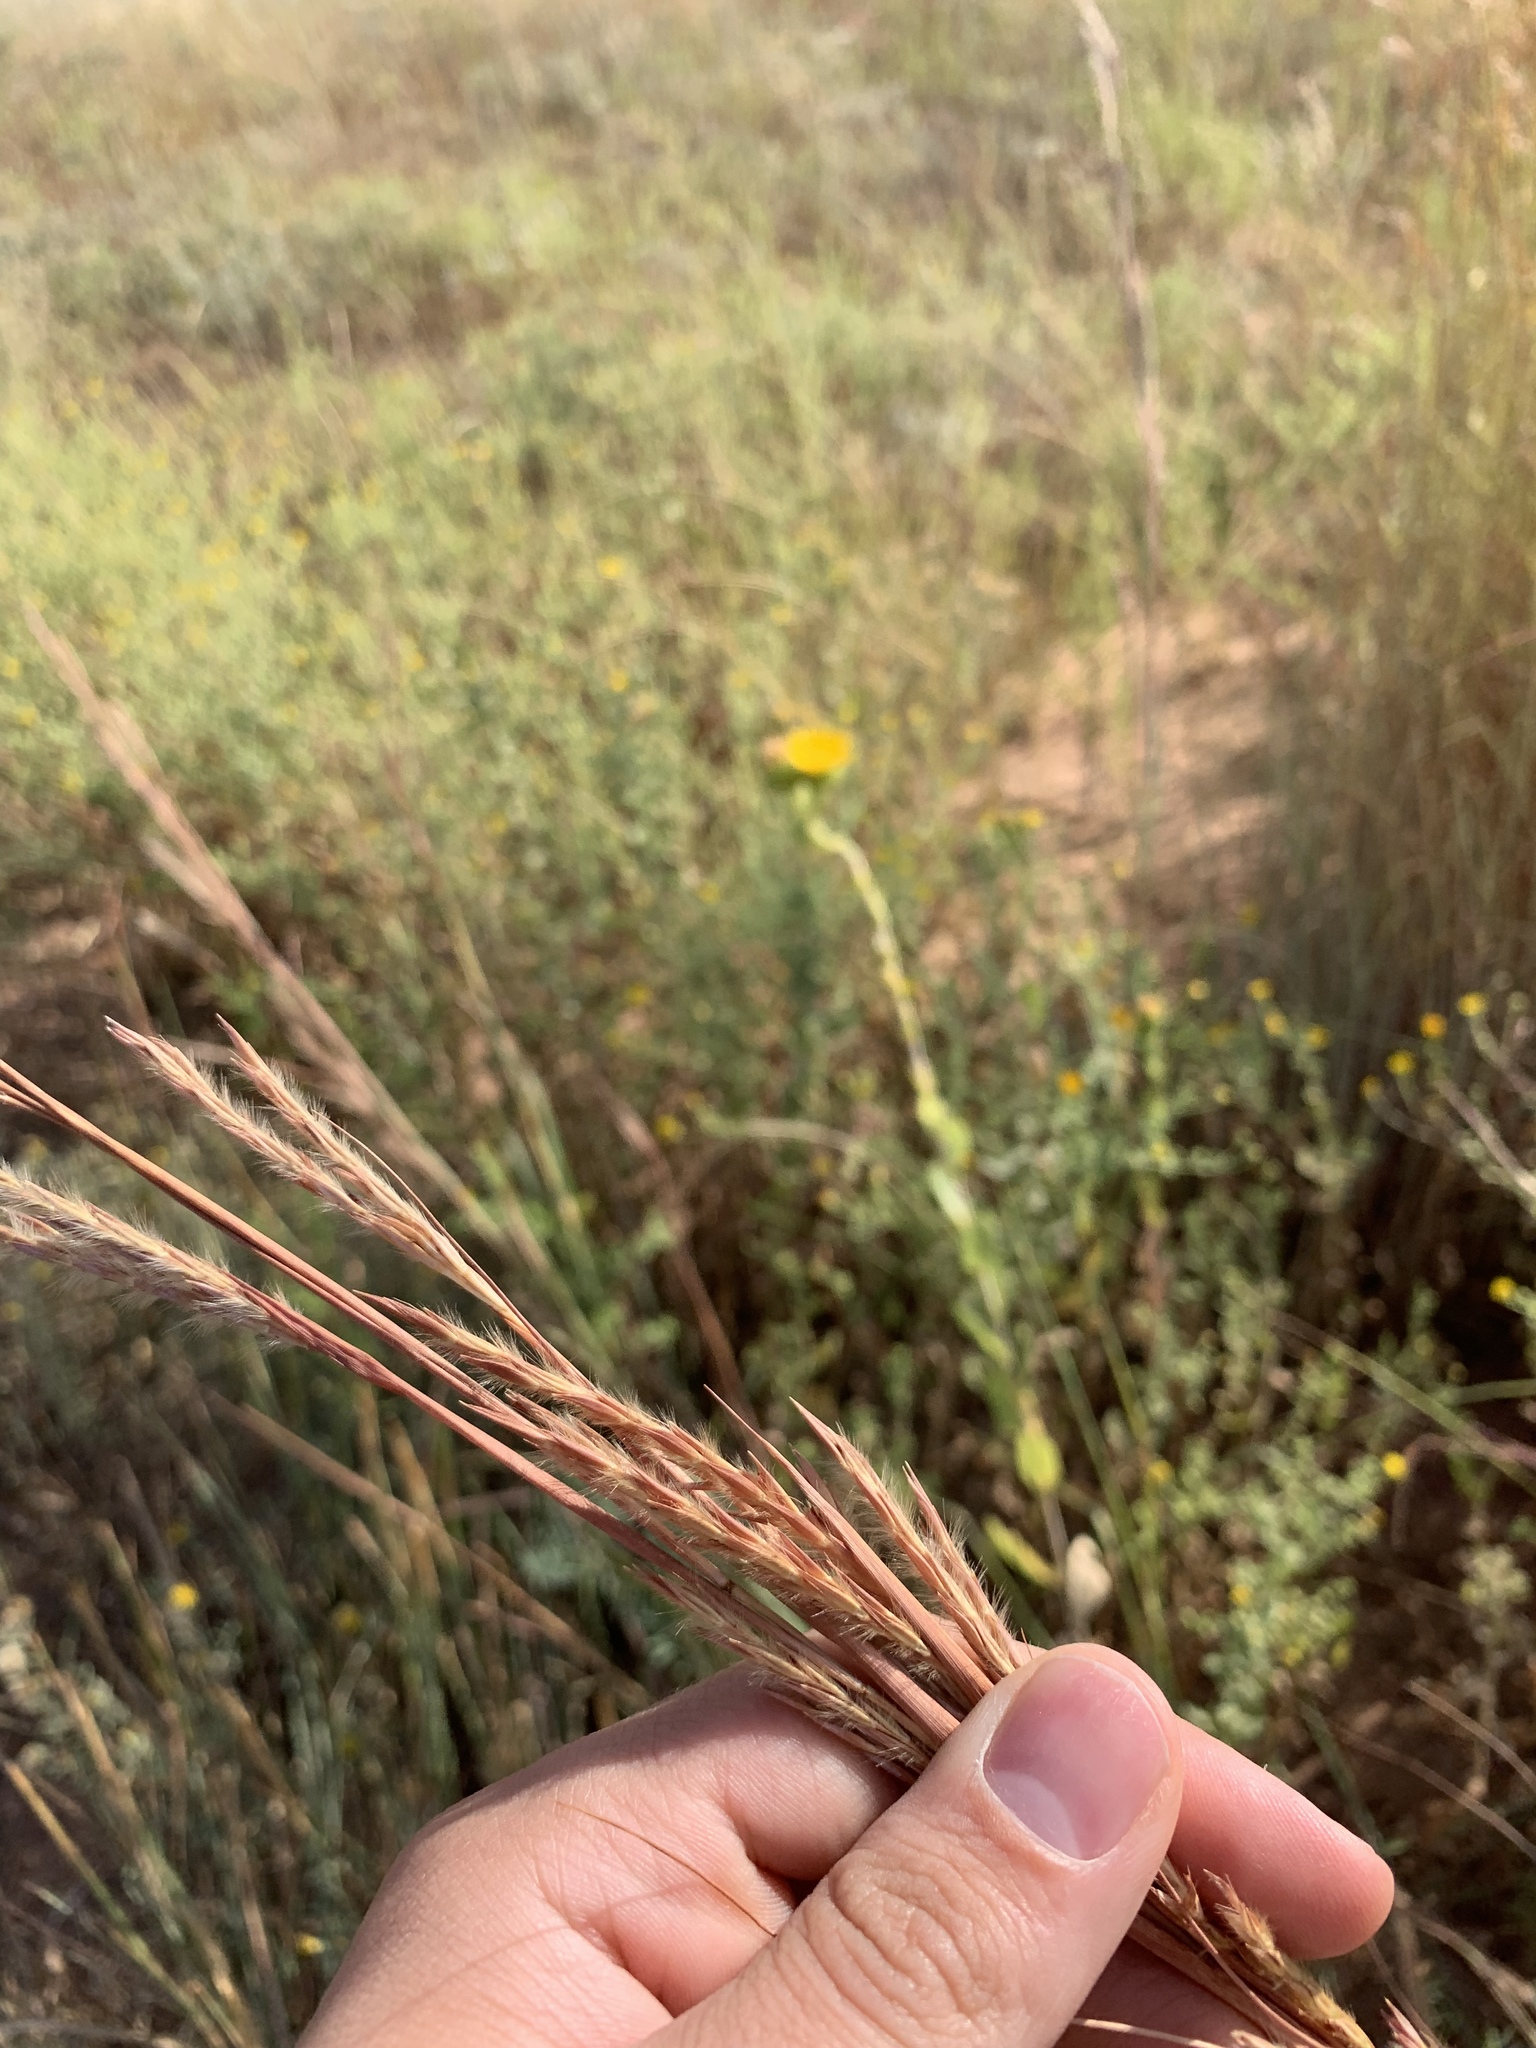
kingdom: Plantae
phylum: Tracheophyta
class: Liliopsida
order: Poales
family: Poaceae
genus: Andropogon
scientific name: Andropogon hallii
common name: Sand bluestem
